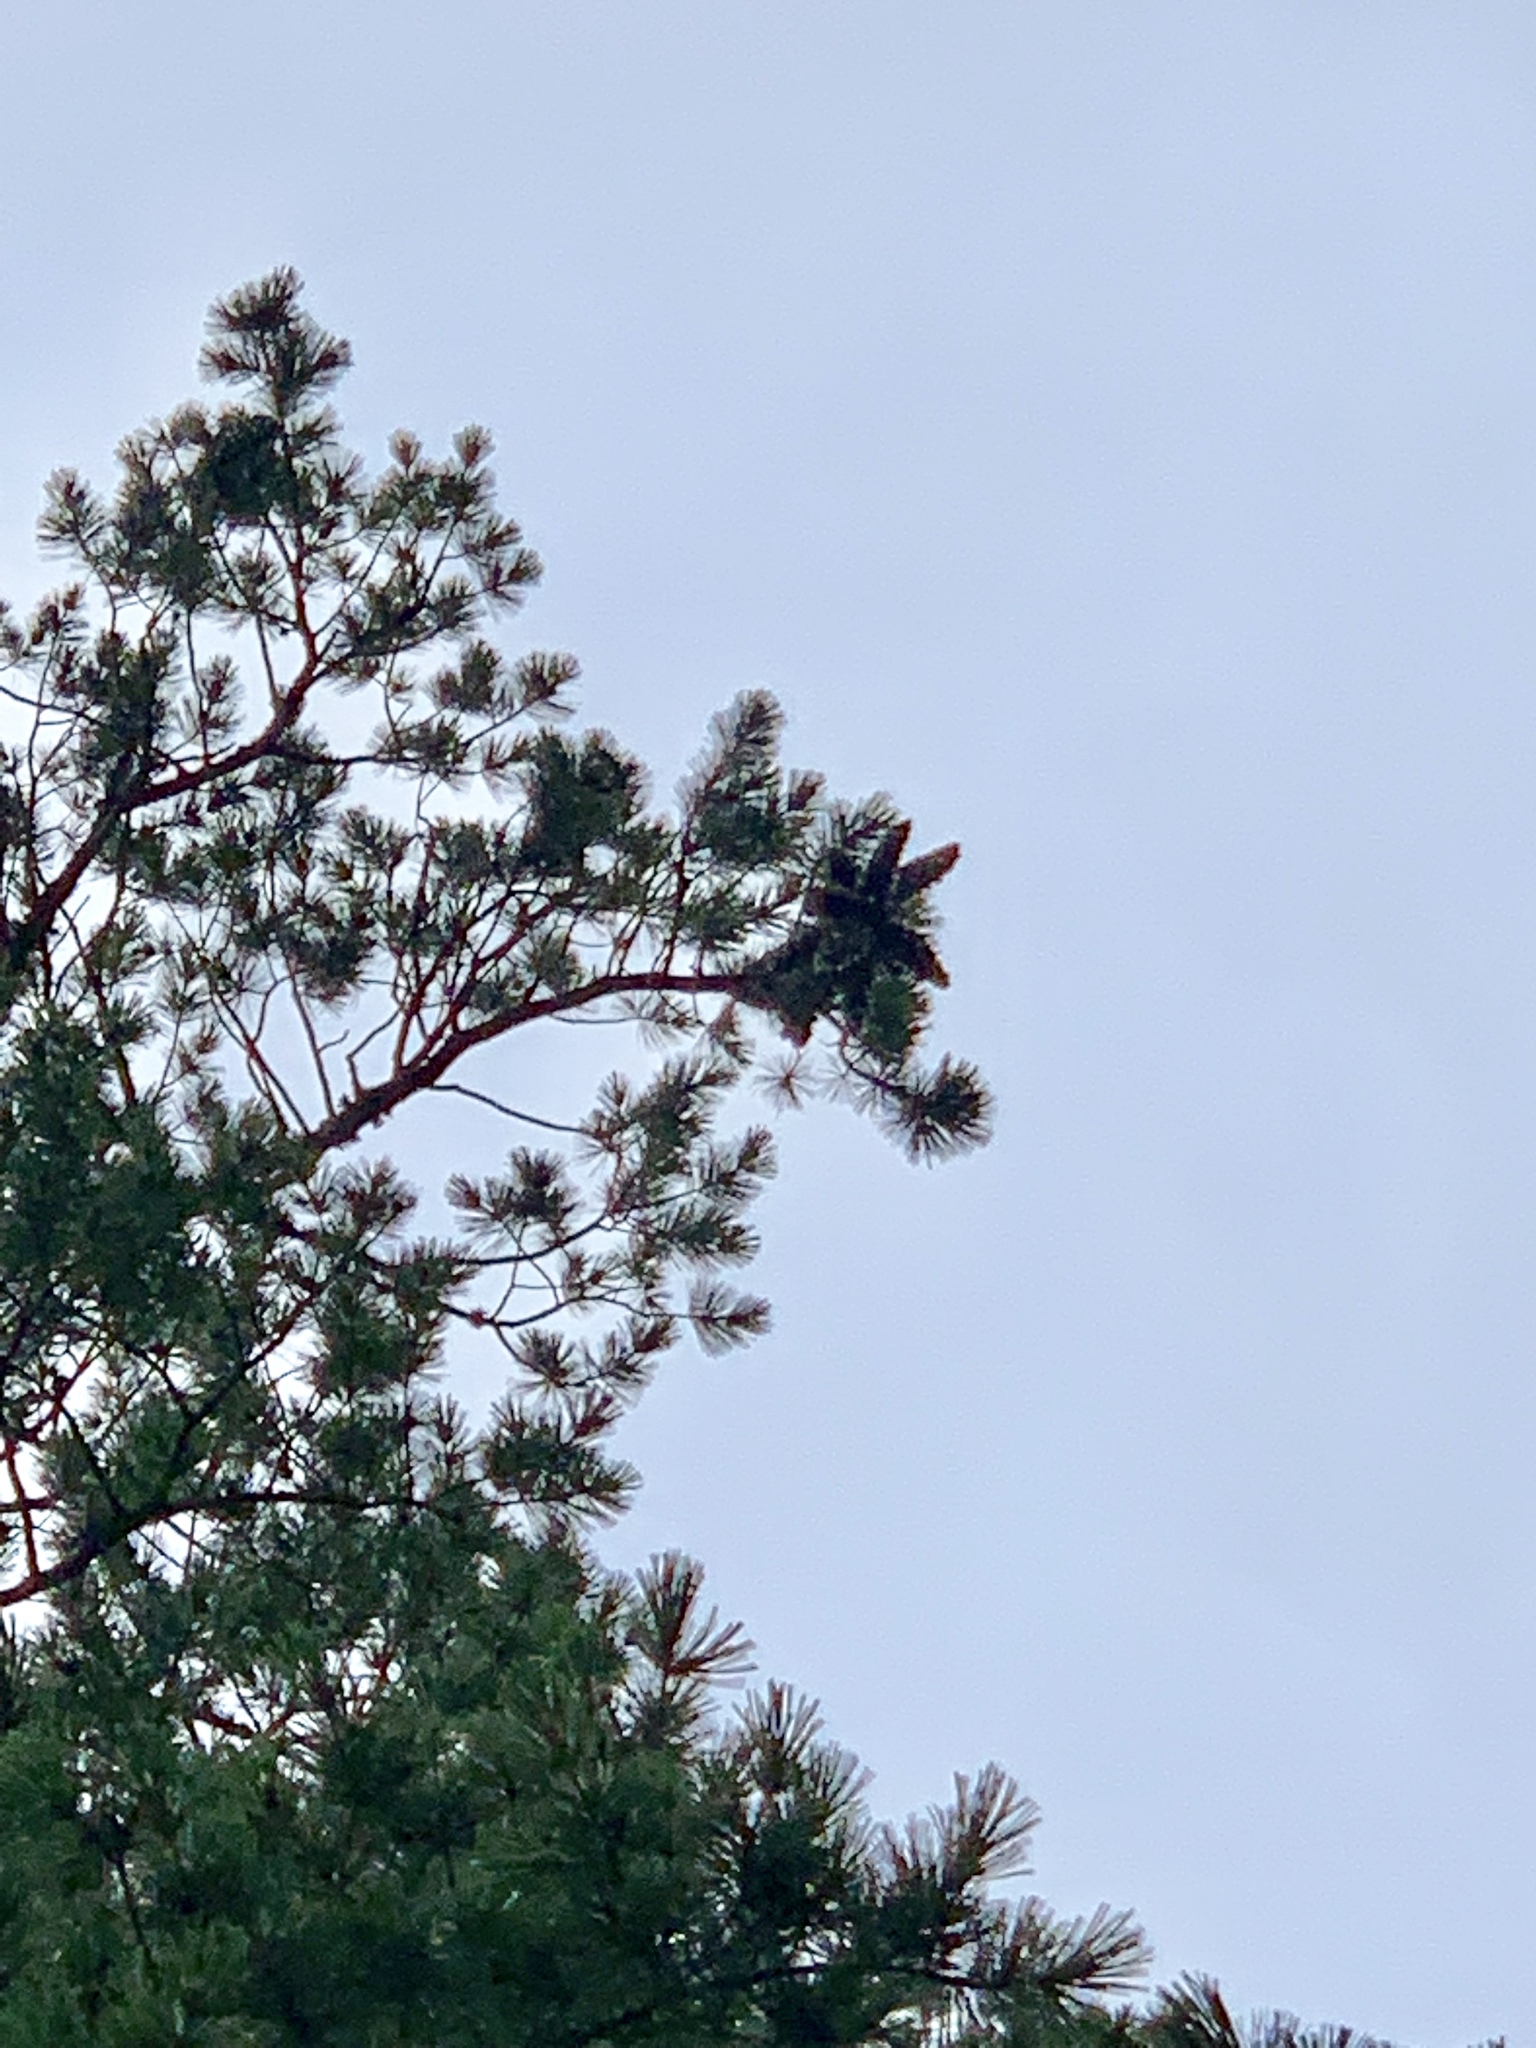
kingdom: Plantae
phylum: Tracheophyta
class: Pinopsida
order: Pinales
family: Pinaceae
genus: Pinus
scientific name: Pinus strobiformis
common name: Southwestern white pine
